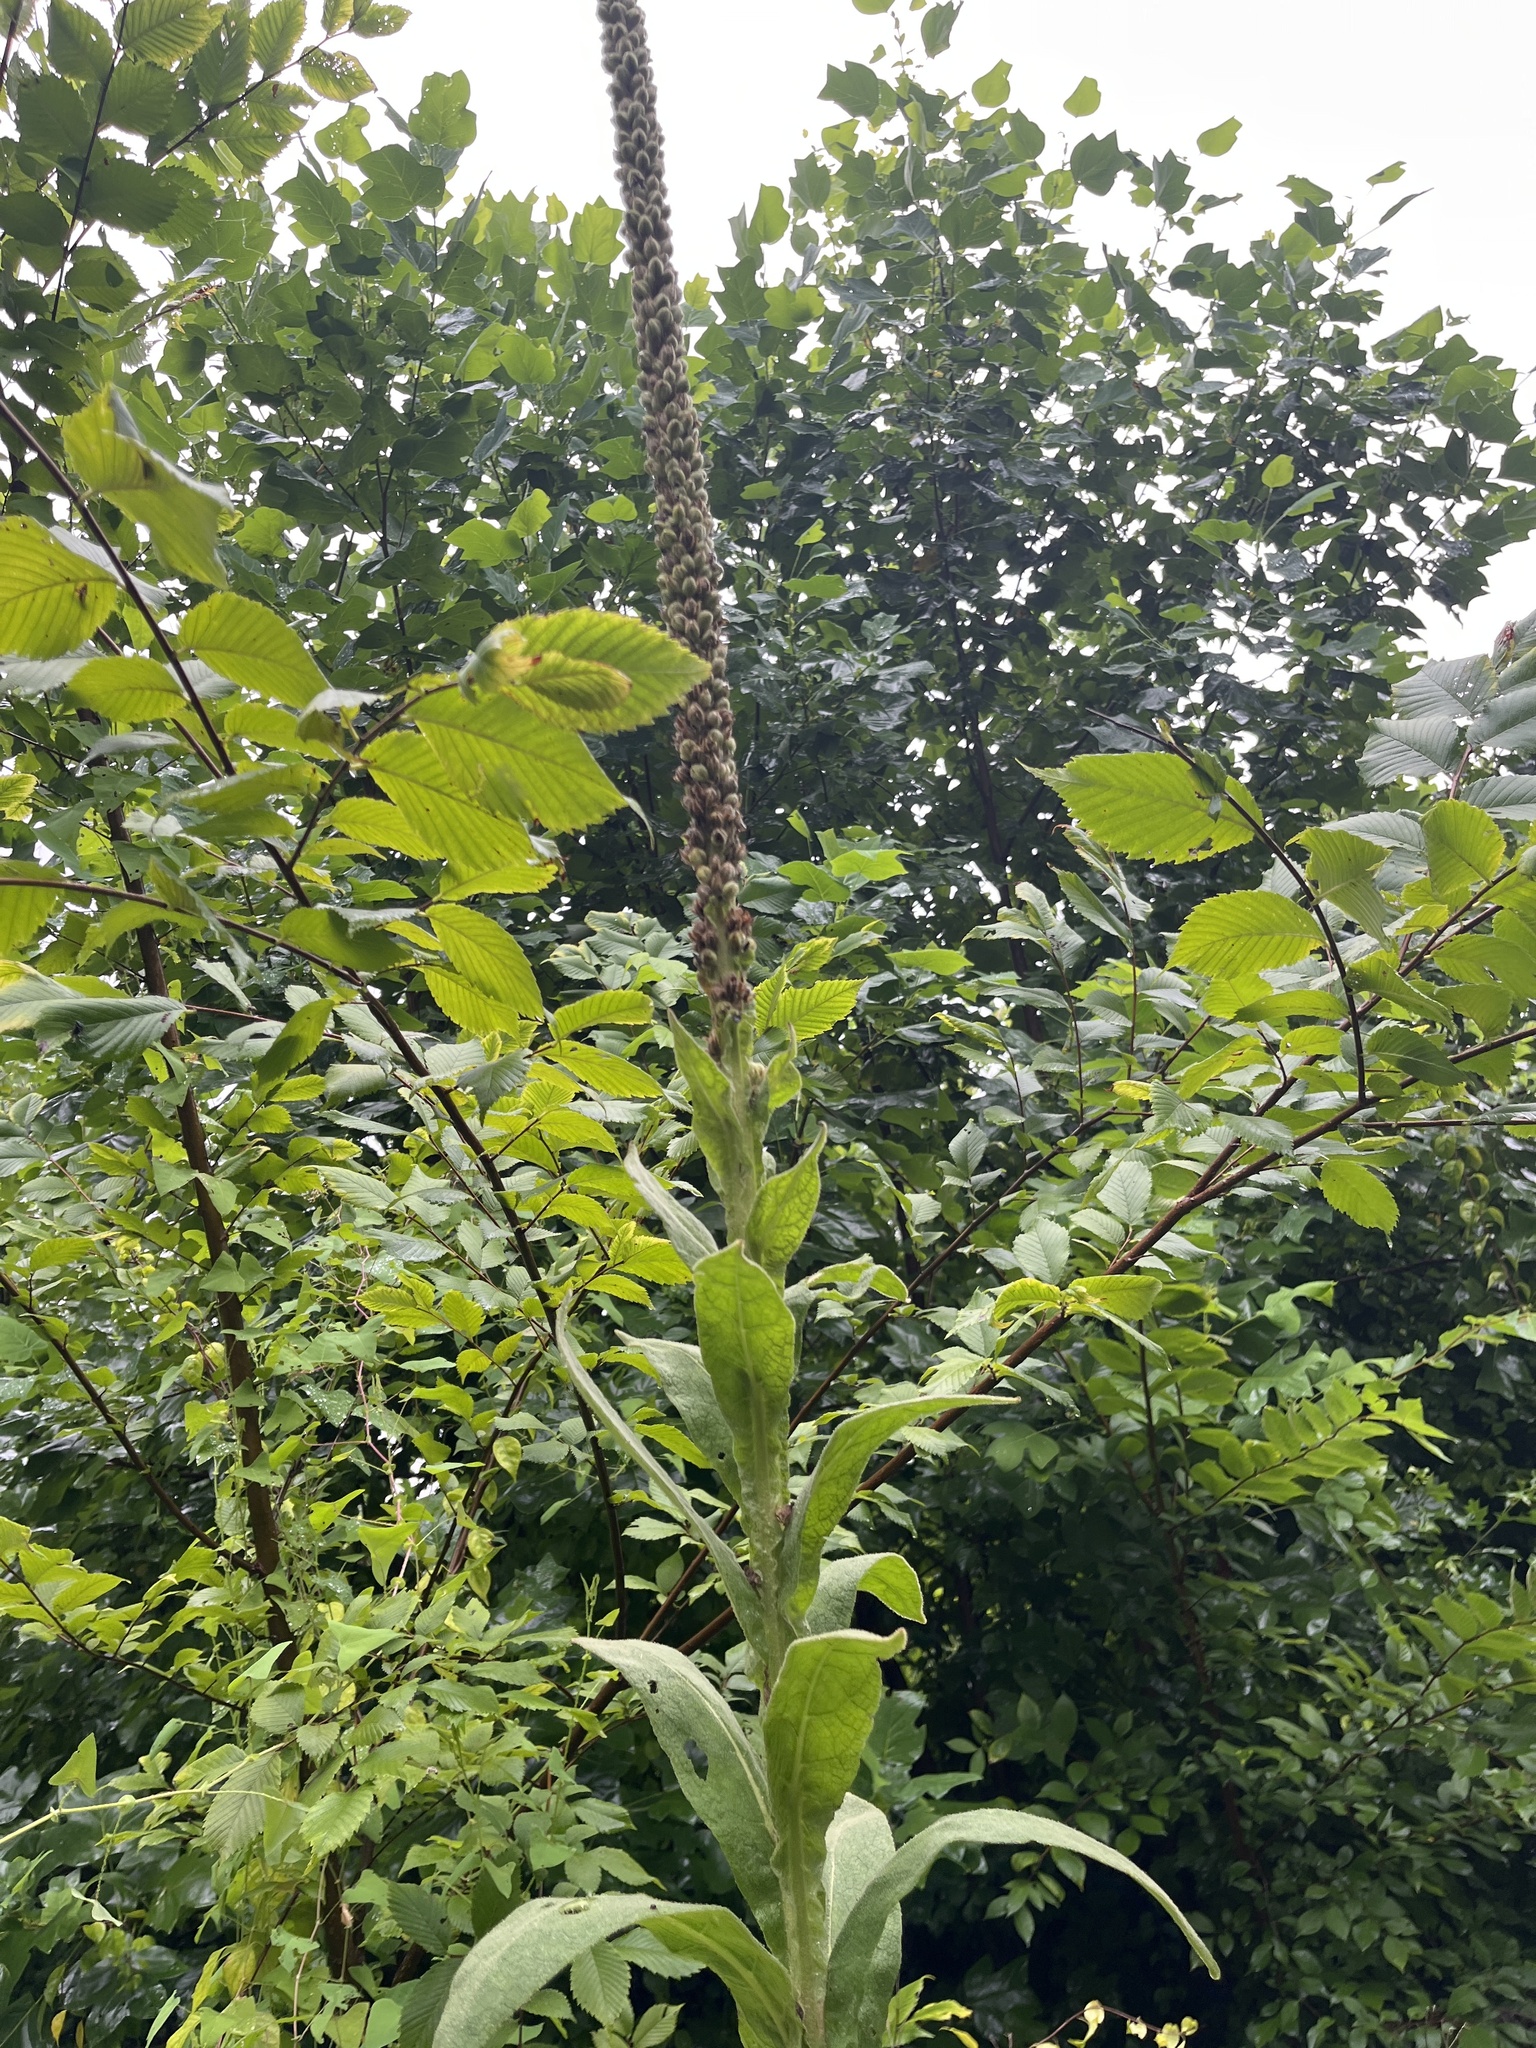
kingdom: Plantae
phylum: Tracheophyta
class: Magnoliopsida
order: Lamiales
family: Scrophulariaceae
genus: Verbascum
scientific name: Verbascum thapsus
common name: Common mullein
